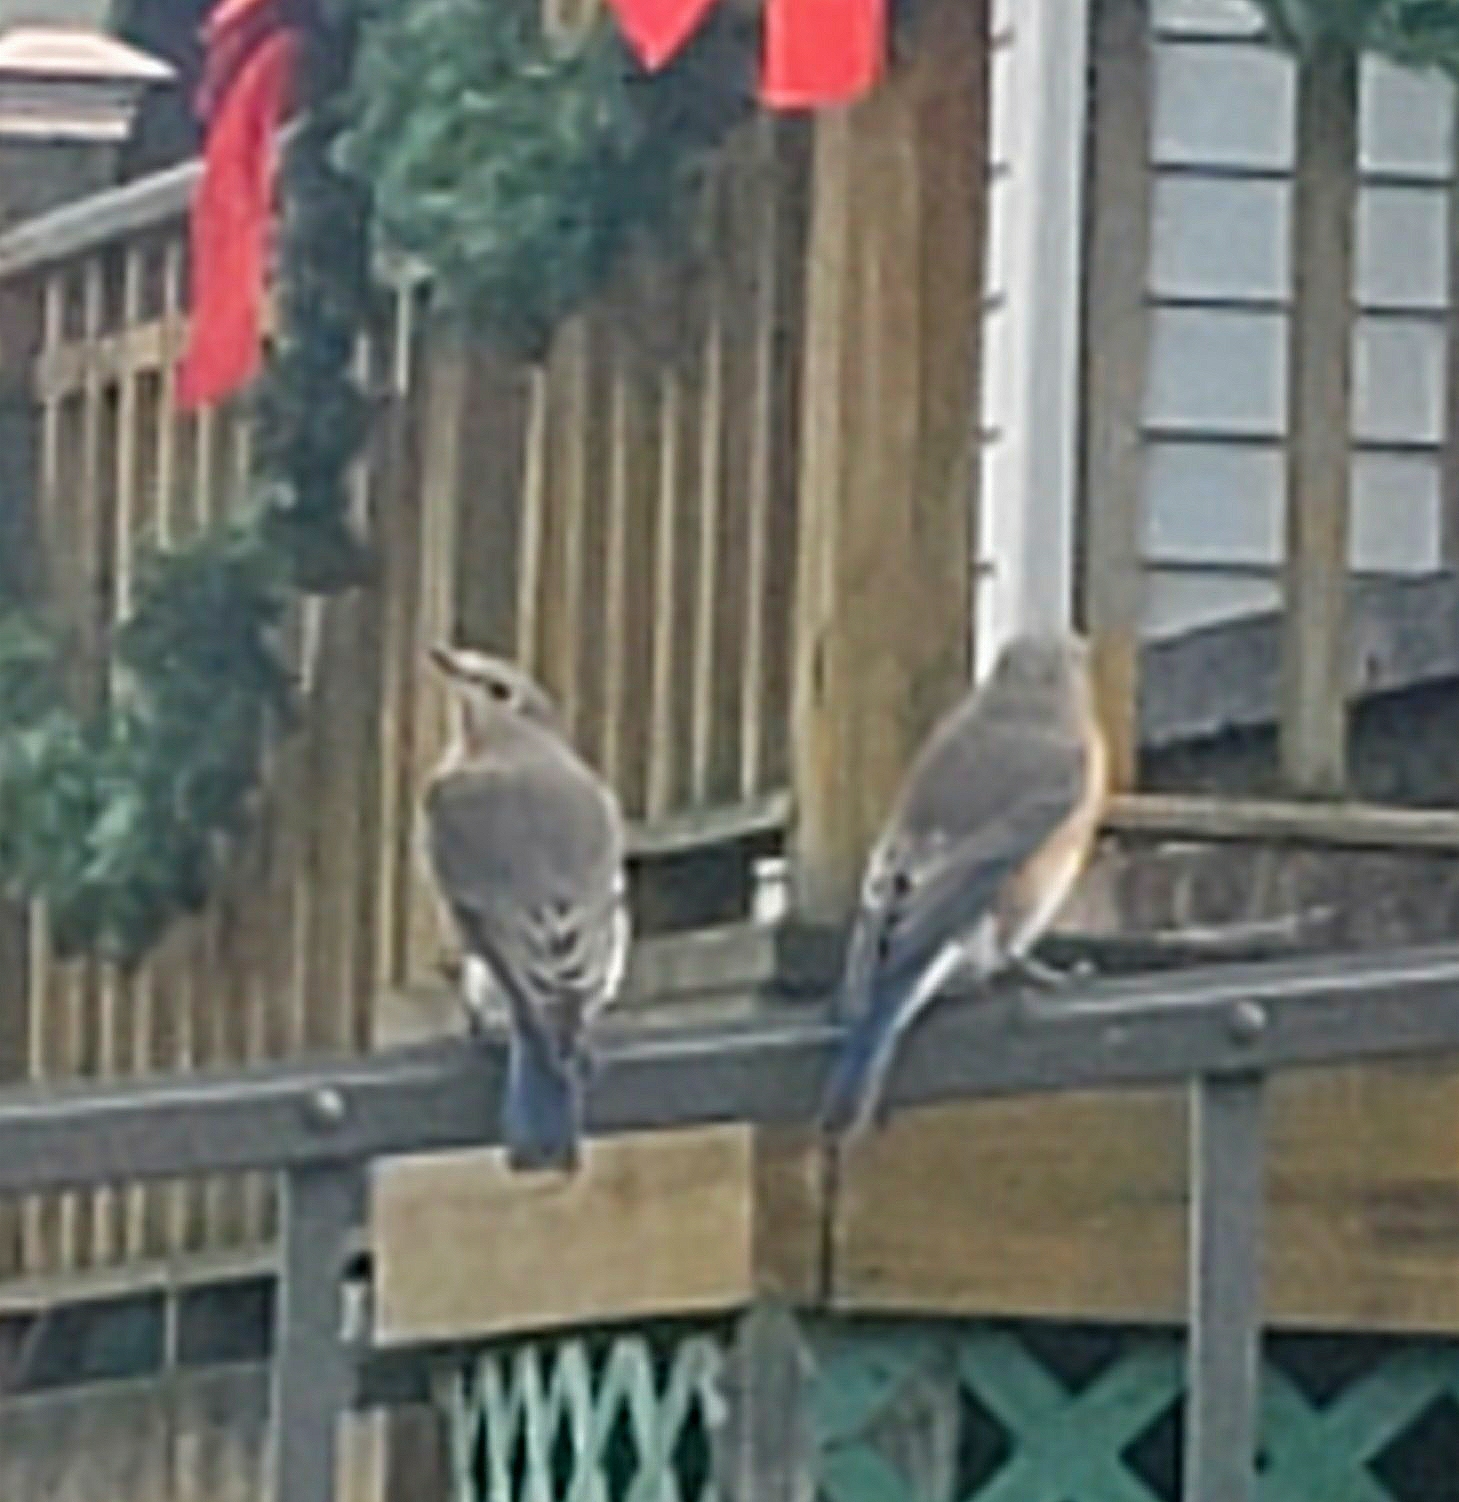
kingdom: Animalia
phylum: Chordata
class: Aves
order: Passeriformes
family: Turdidae
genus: Sialia
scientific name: Sialia sialis
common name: Eastern bluebird
